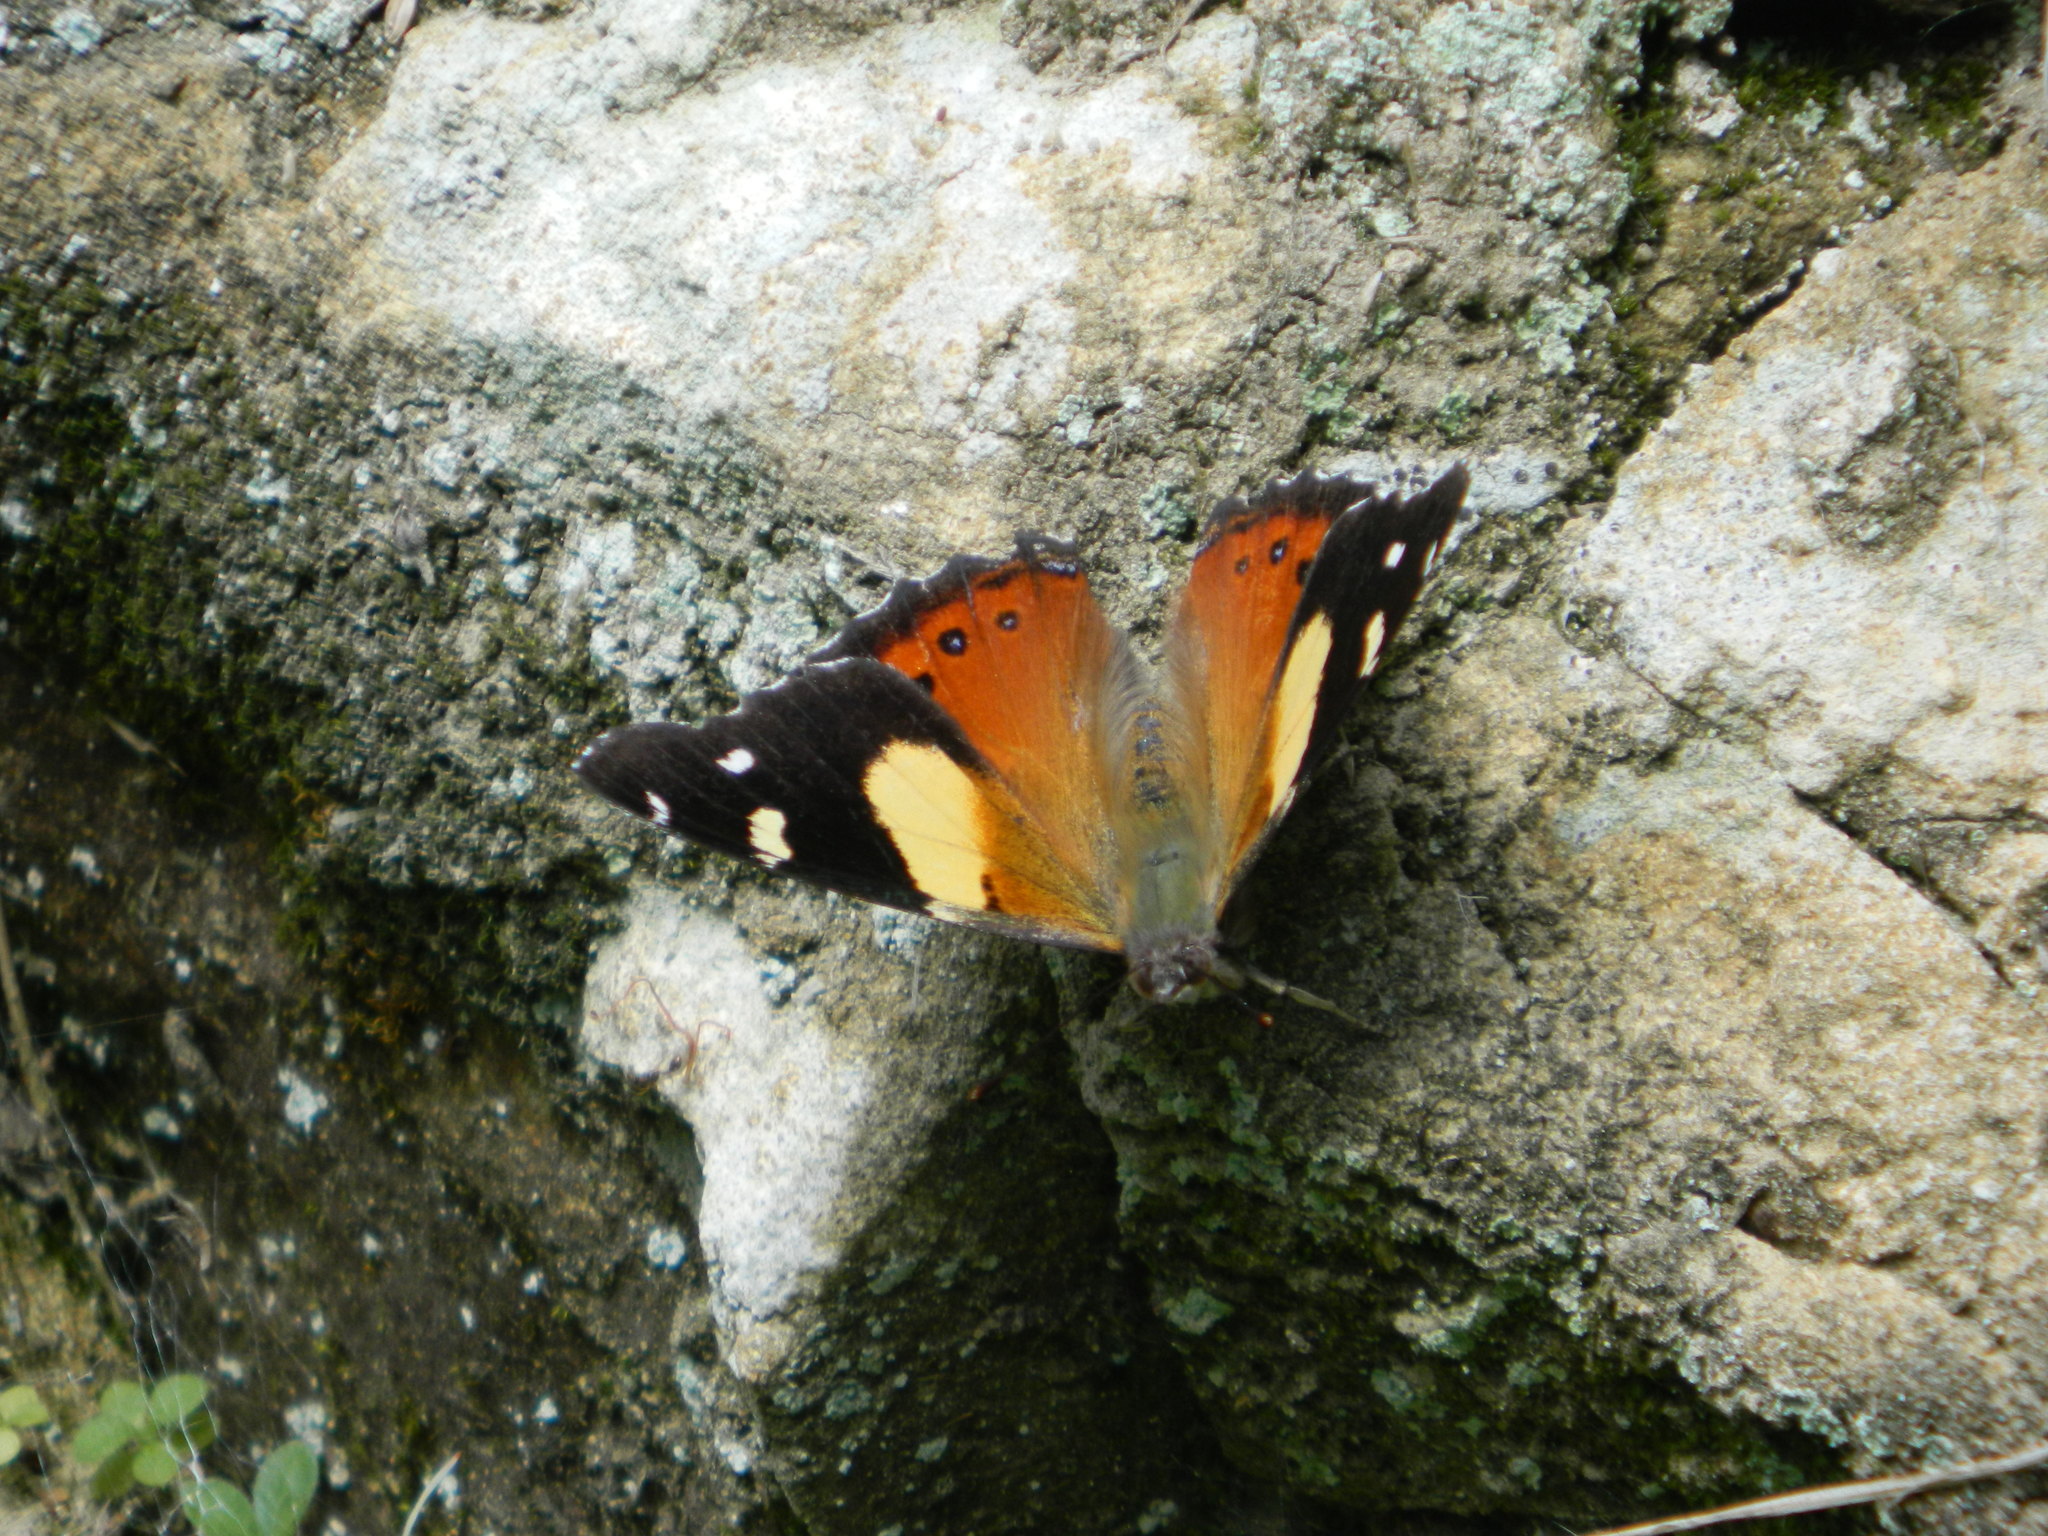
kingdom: Animalia
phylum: Arthropoda
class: Insecta
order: Lepidoptera
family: Nymphalidae
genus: Vanessa
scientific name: Vanessa itea
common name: Yellow admiral
